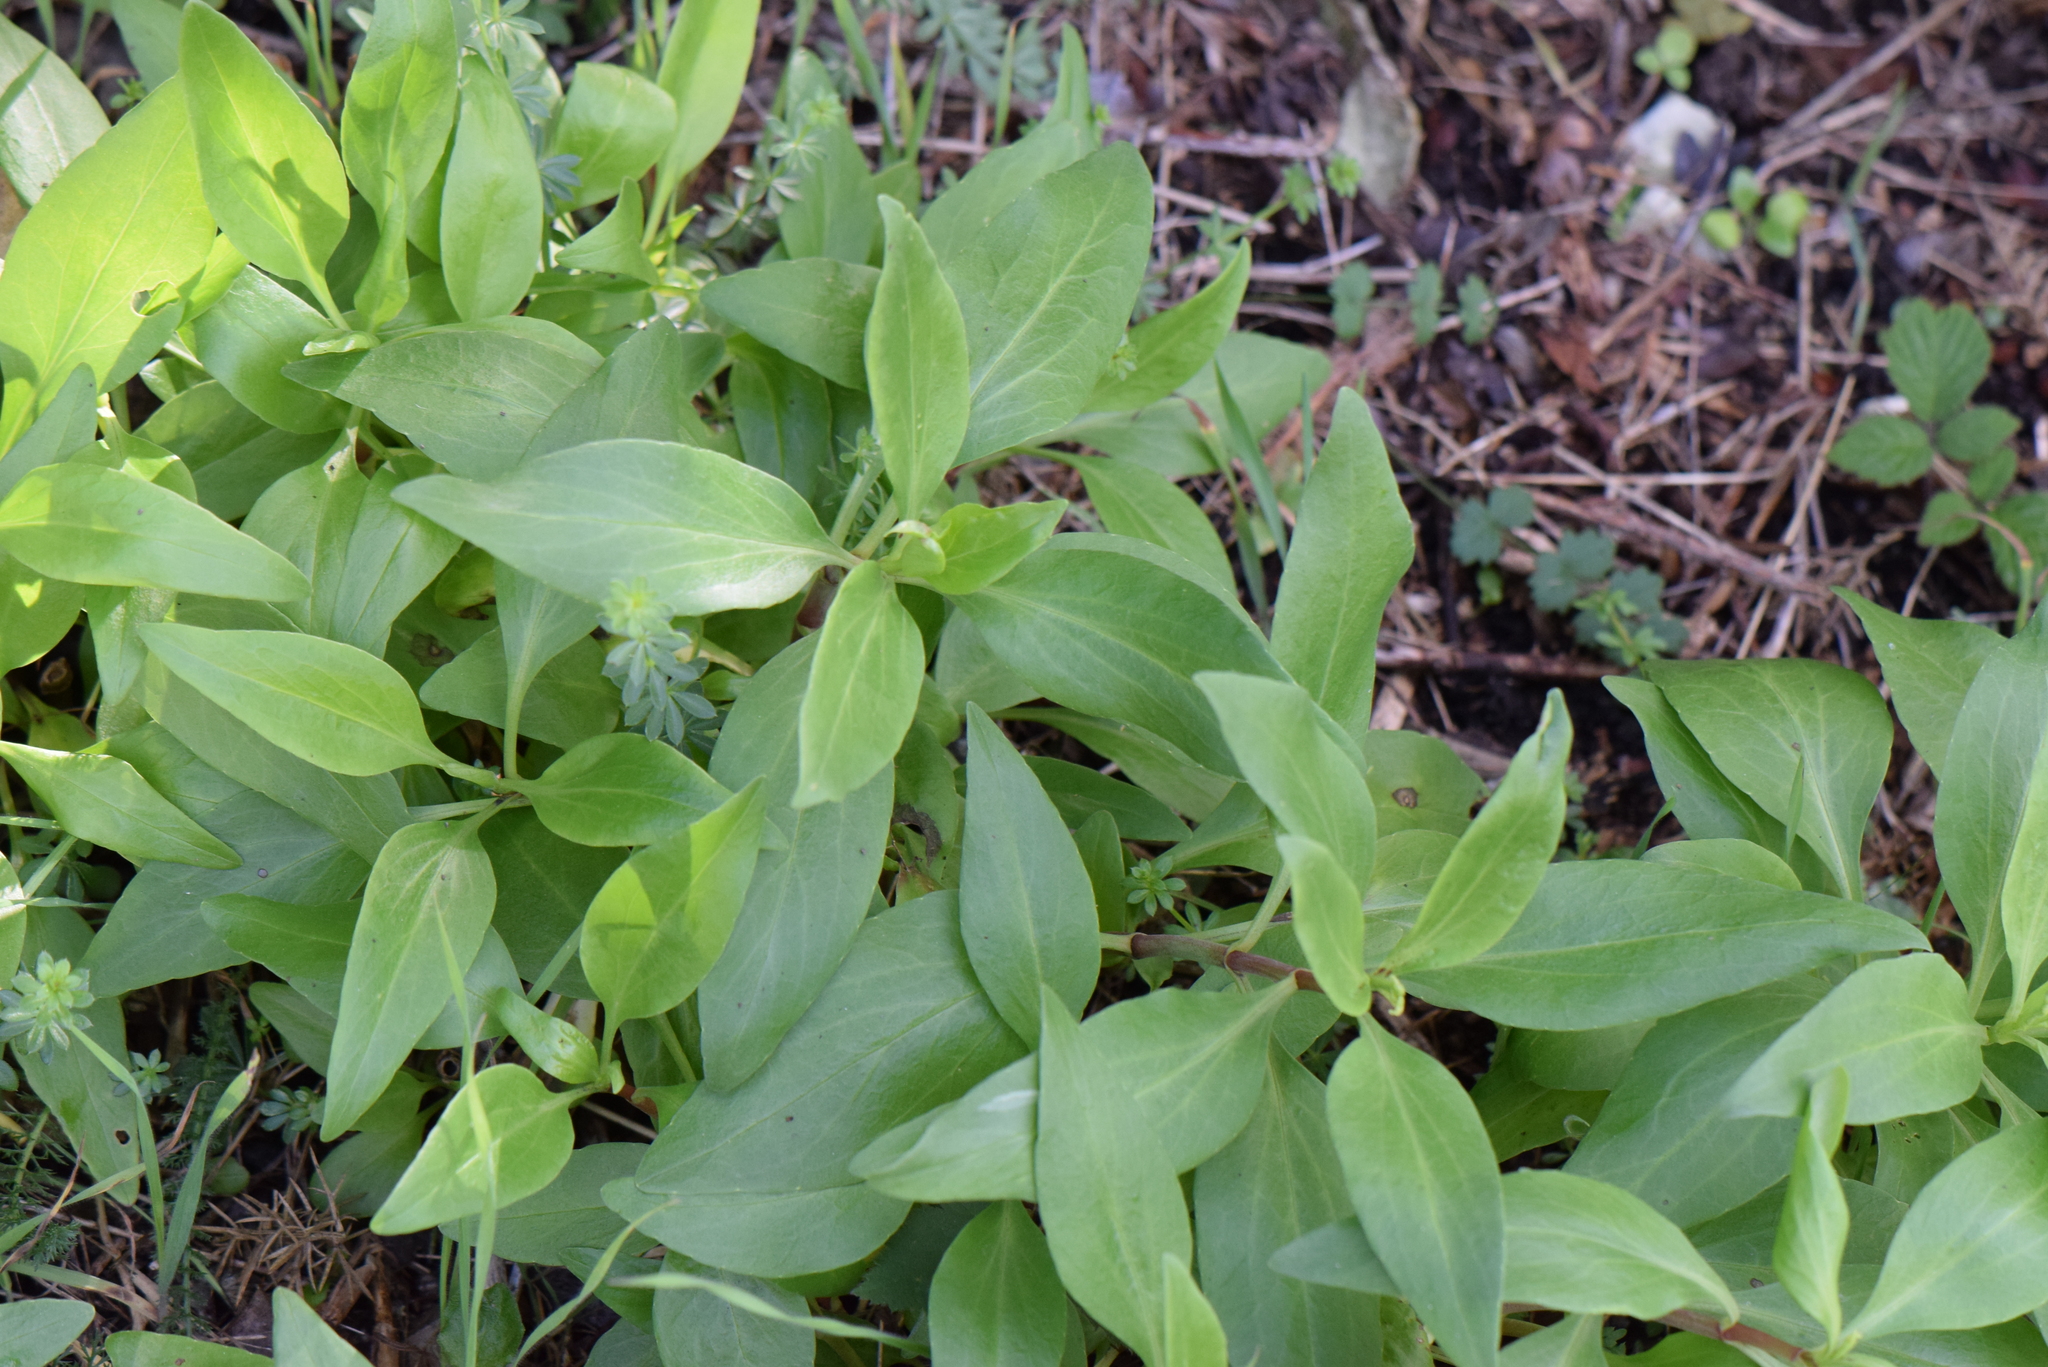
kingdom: Plantae
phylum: Tracheophyta
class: Magnoliopsida
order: Dipsacales
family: Caprifoliaceae
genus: Centranthus
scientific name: Centranthus ruber
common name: Red valerian
